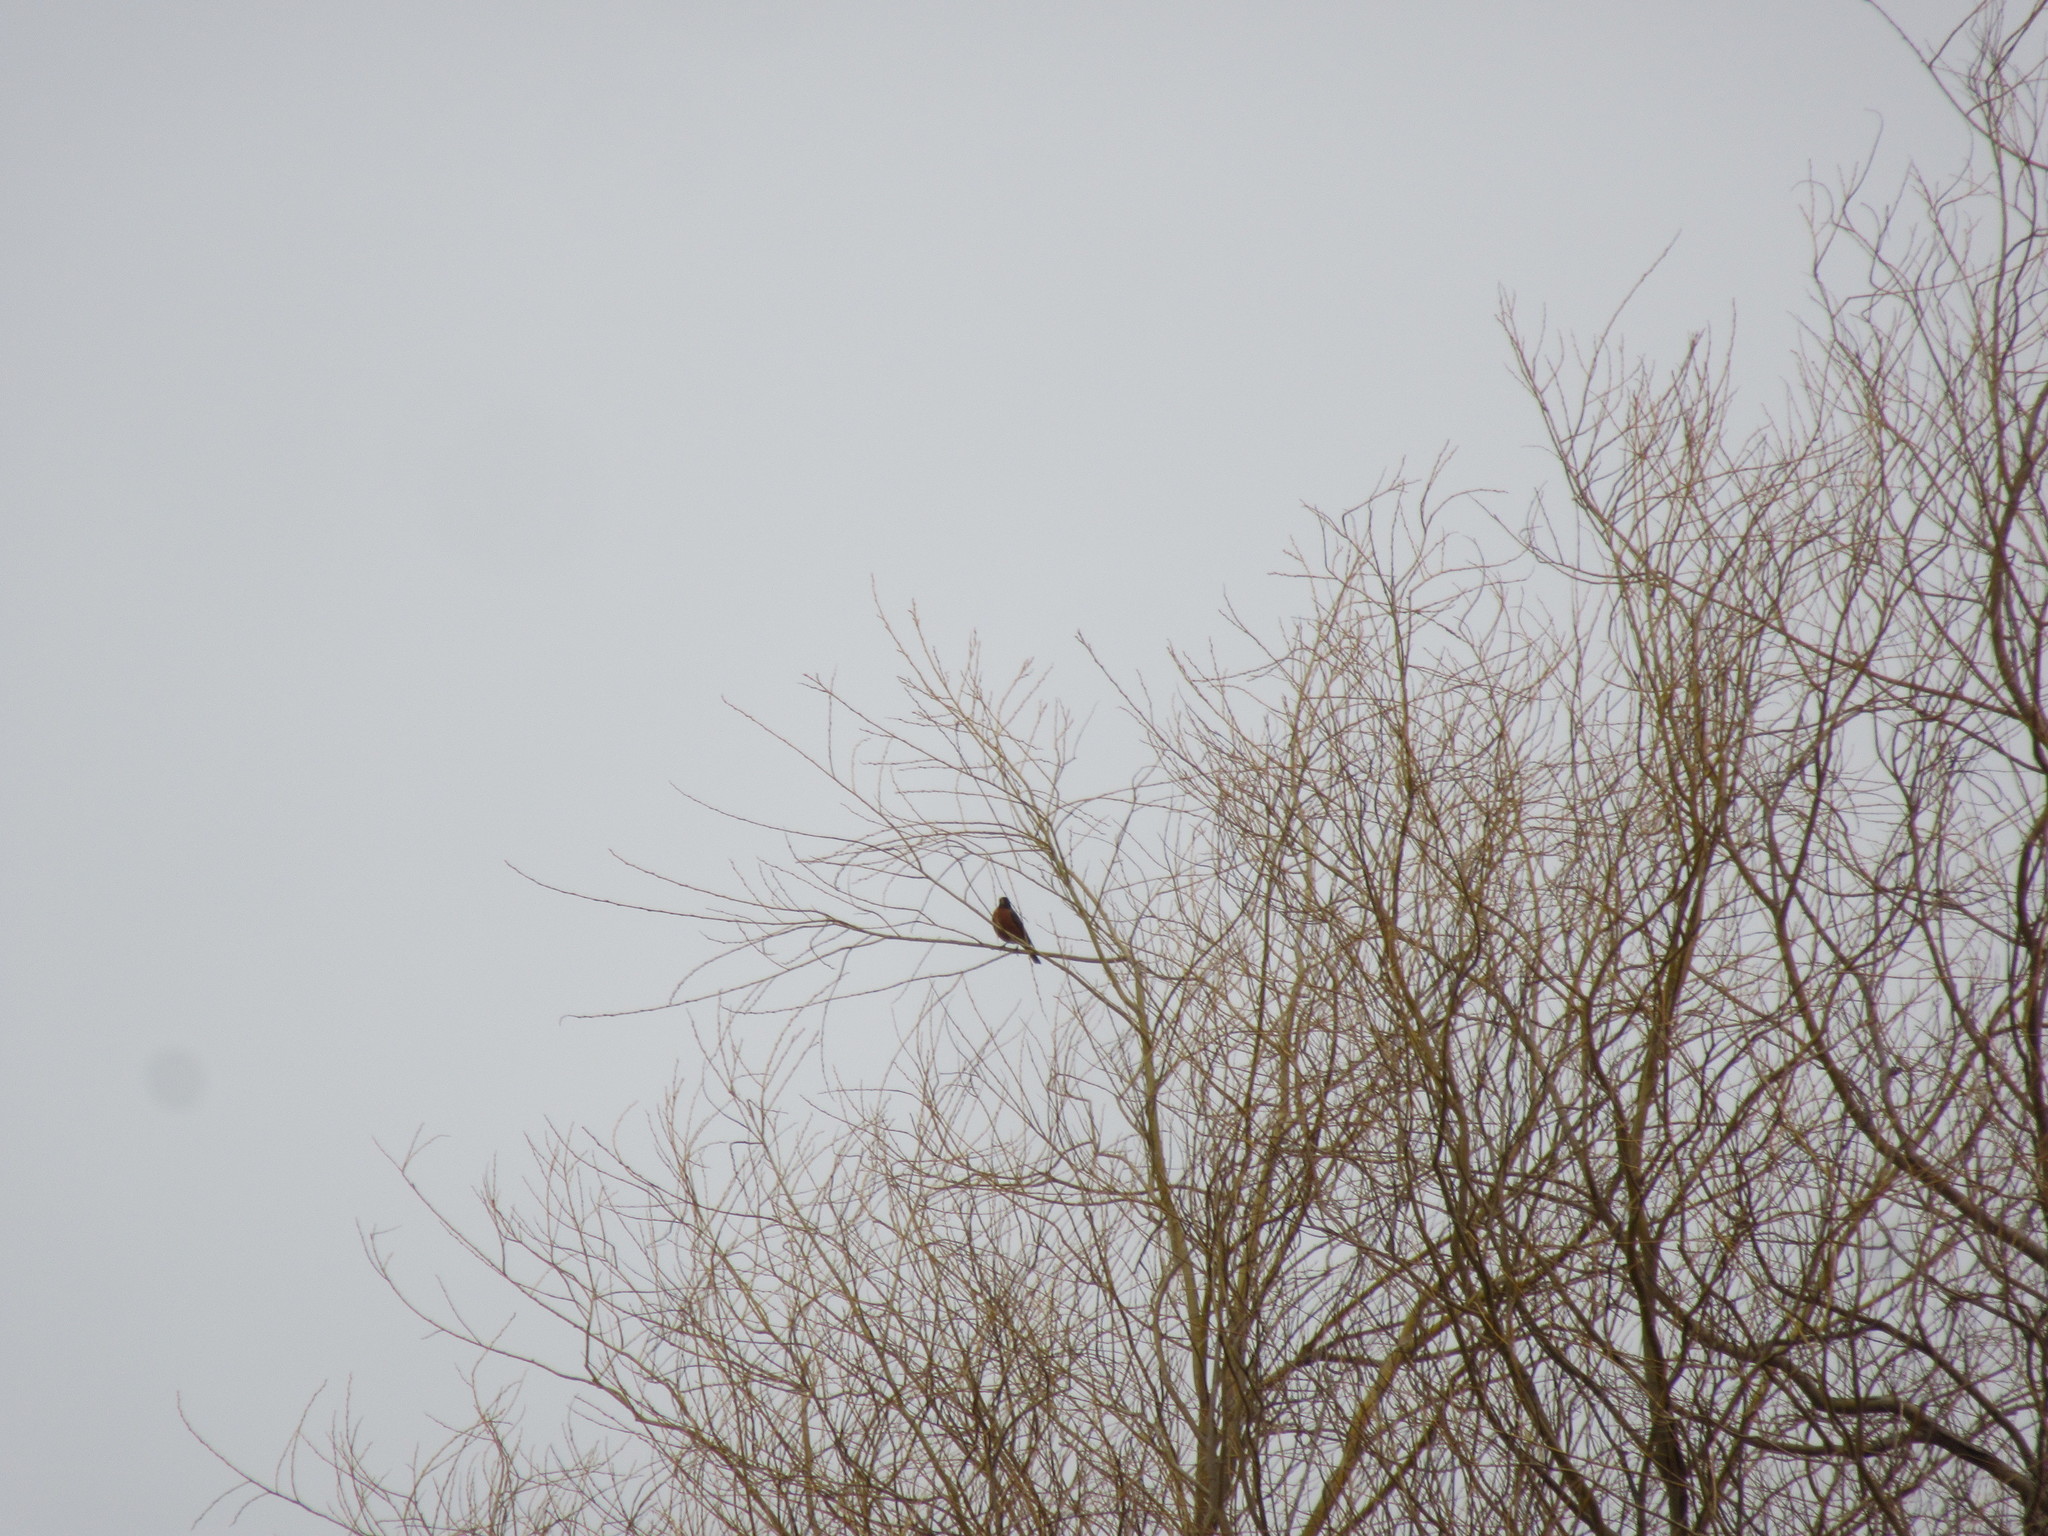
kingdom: Animalia
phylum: Chordata
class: Aves
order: Passeriformes
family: Turdidae
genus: Turdus
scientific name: Turdus migratorius
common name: American robin
